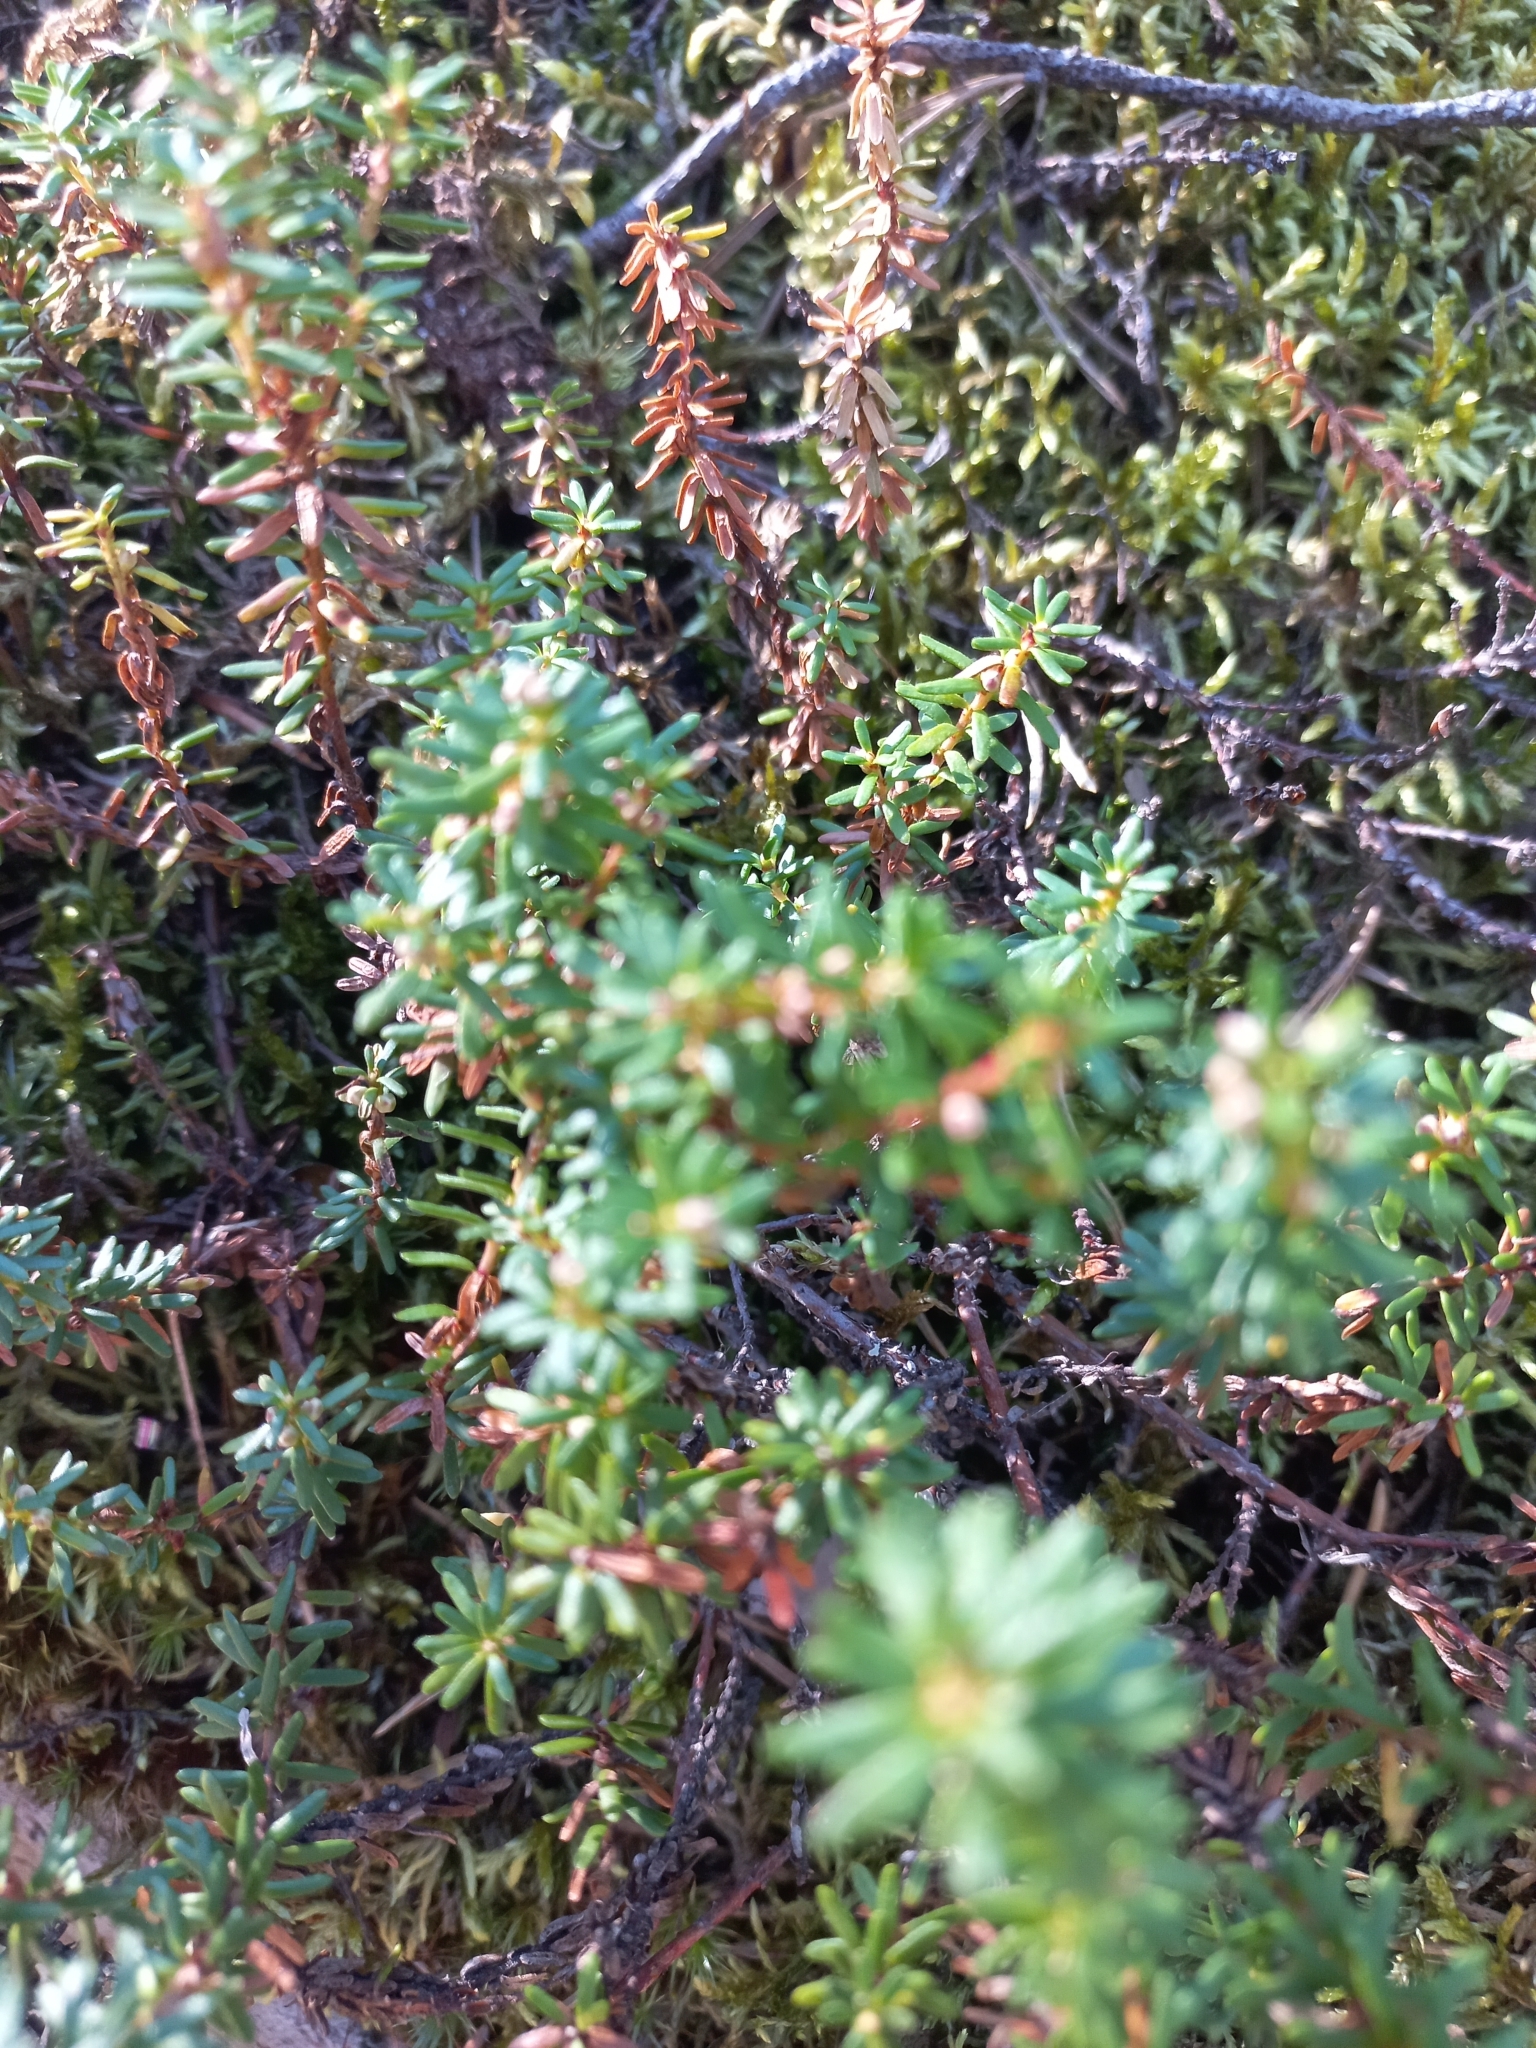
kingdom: Plantae
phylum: Tracheophyta
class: Magnoliopsida
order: Ericales
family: Ericaceae
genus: Empetrum
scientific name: Empetrum nigrum
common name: Black crowberry
